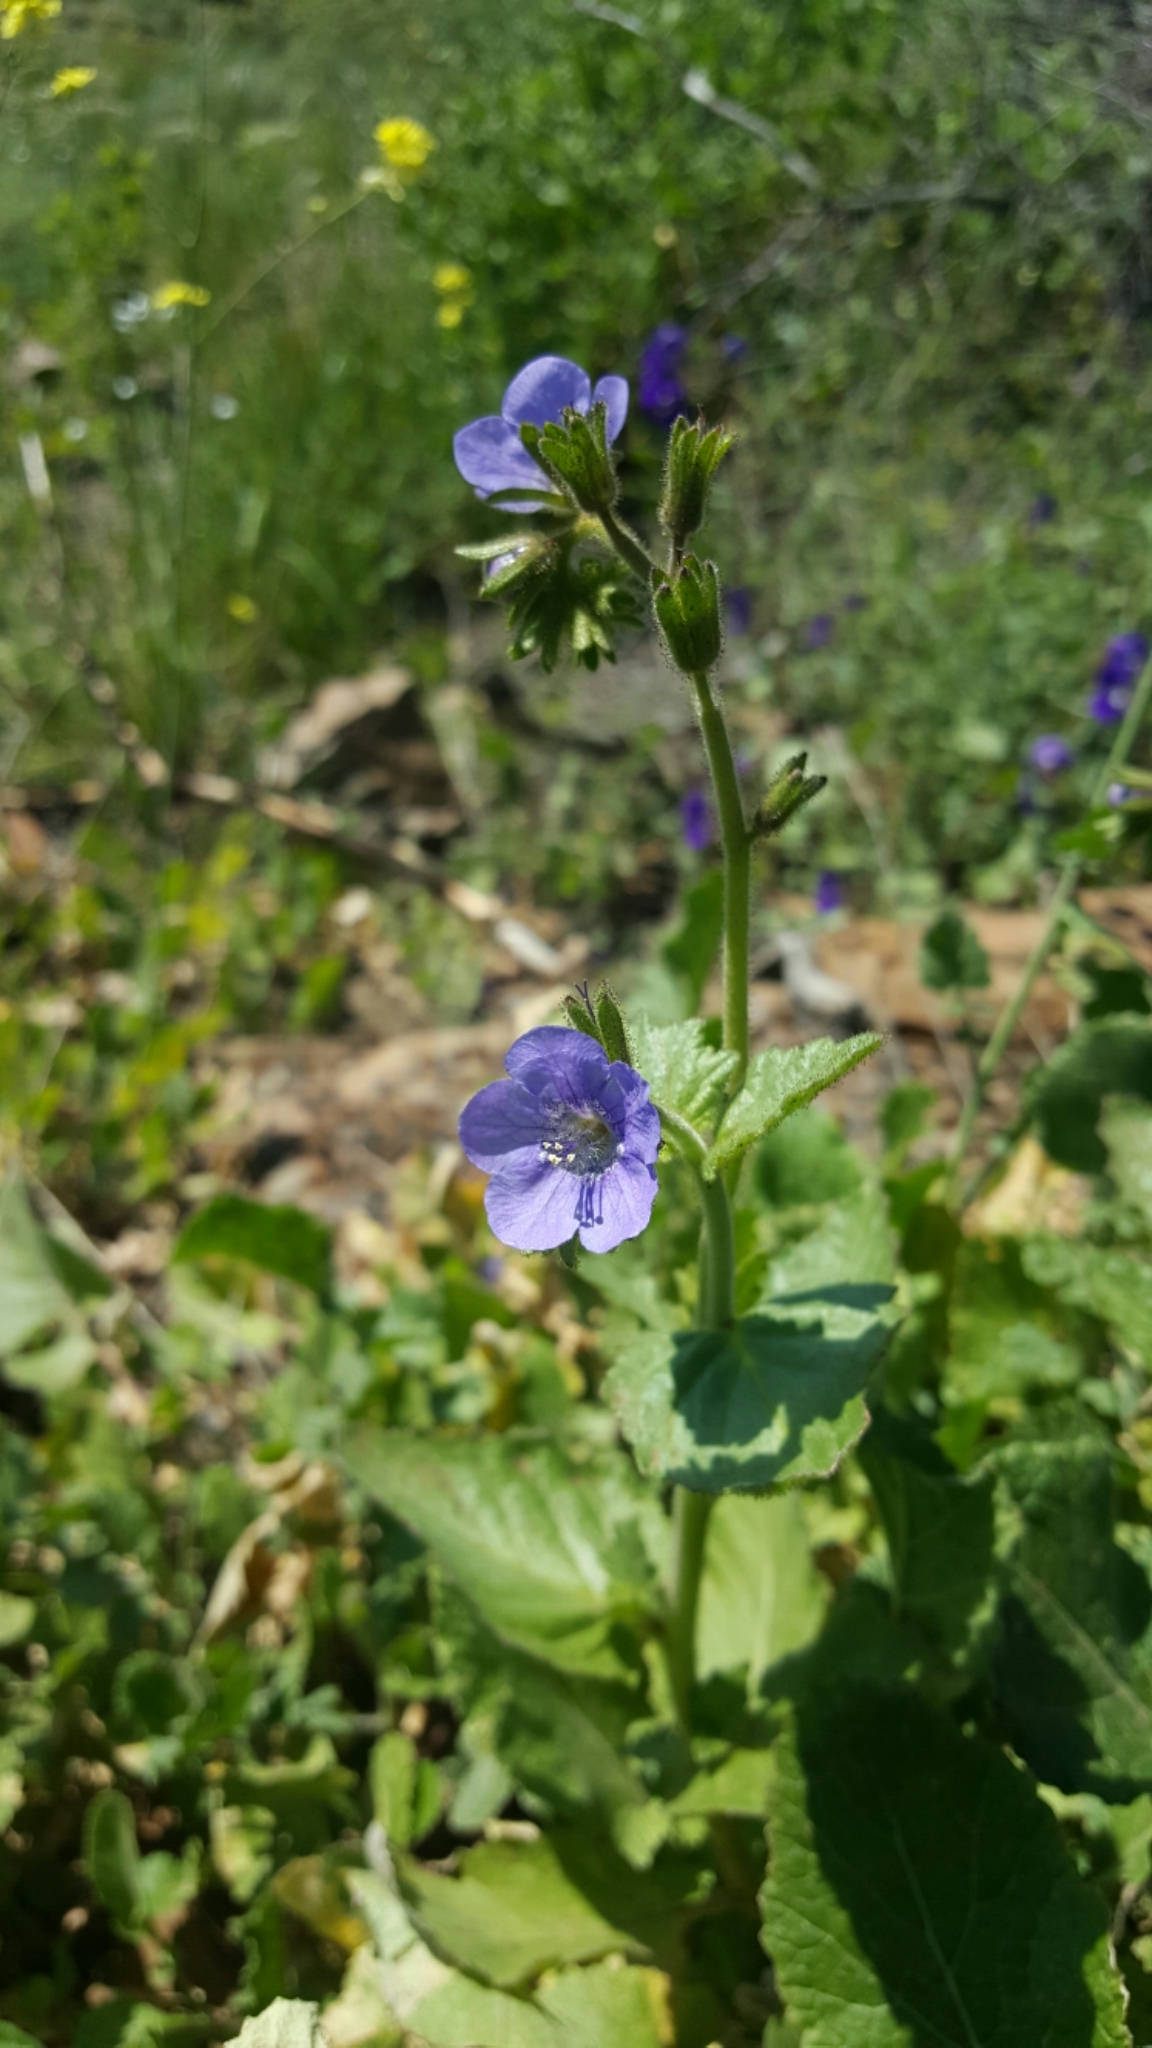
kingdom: Plantae
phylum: Tracheophyta
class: Magnoliopsida
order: Boraginales
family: Hydrophyllaceae
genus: Phacelia
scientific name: Phacelia viscida
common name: Sticky phacelia
